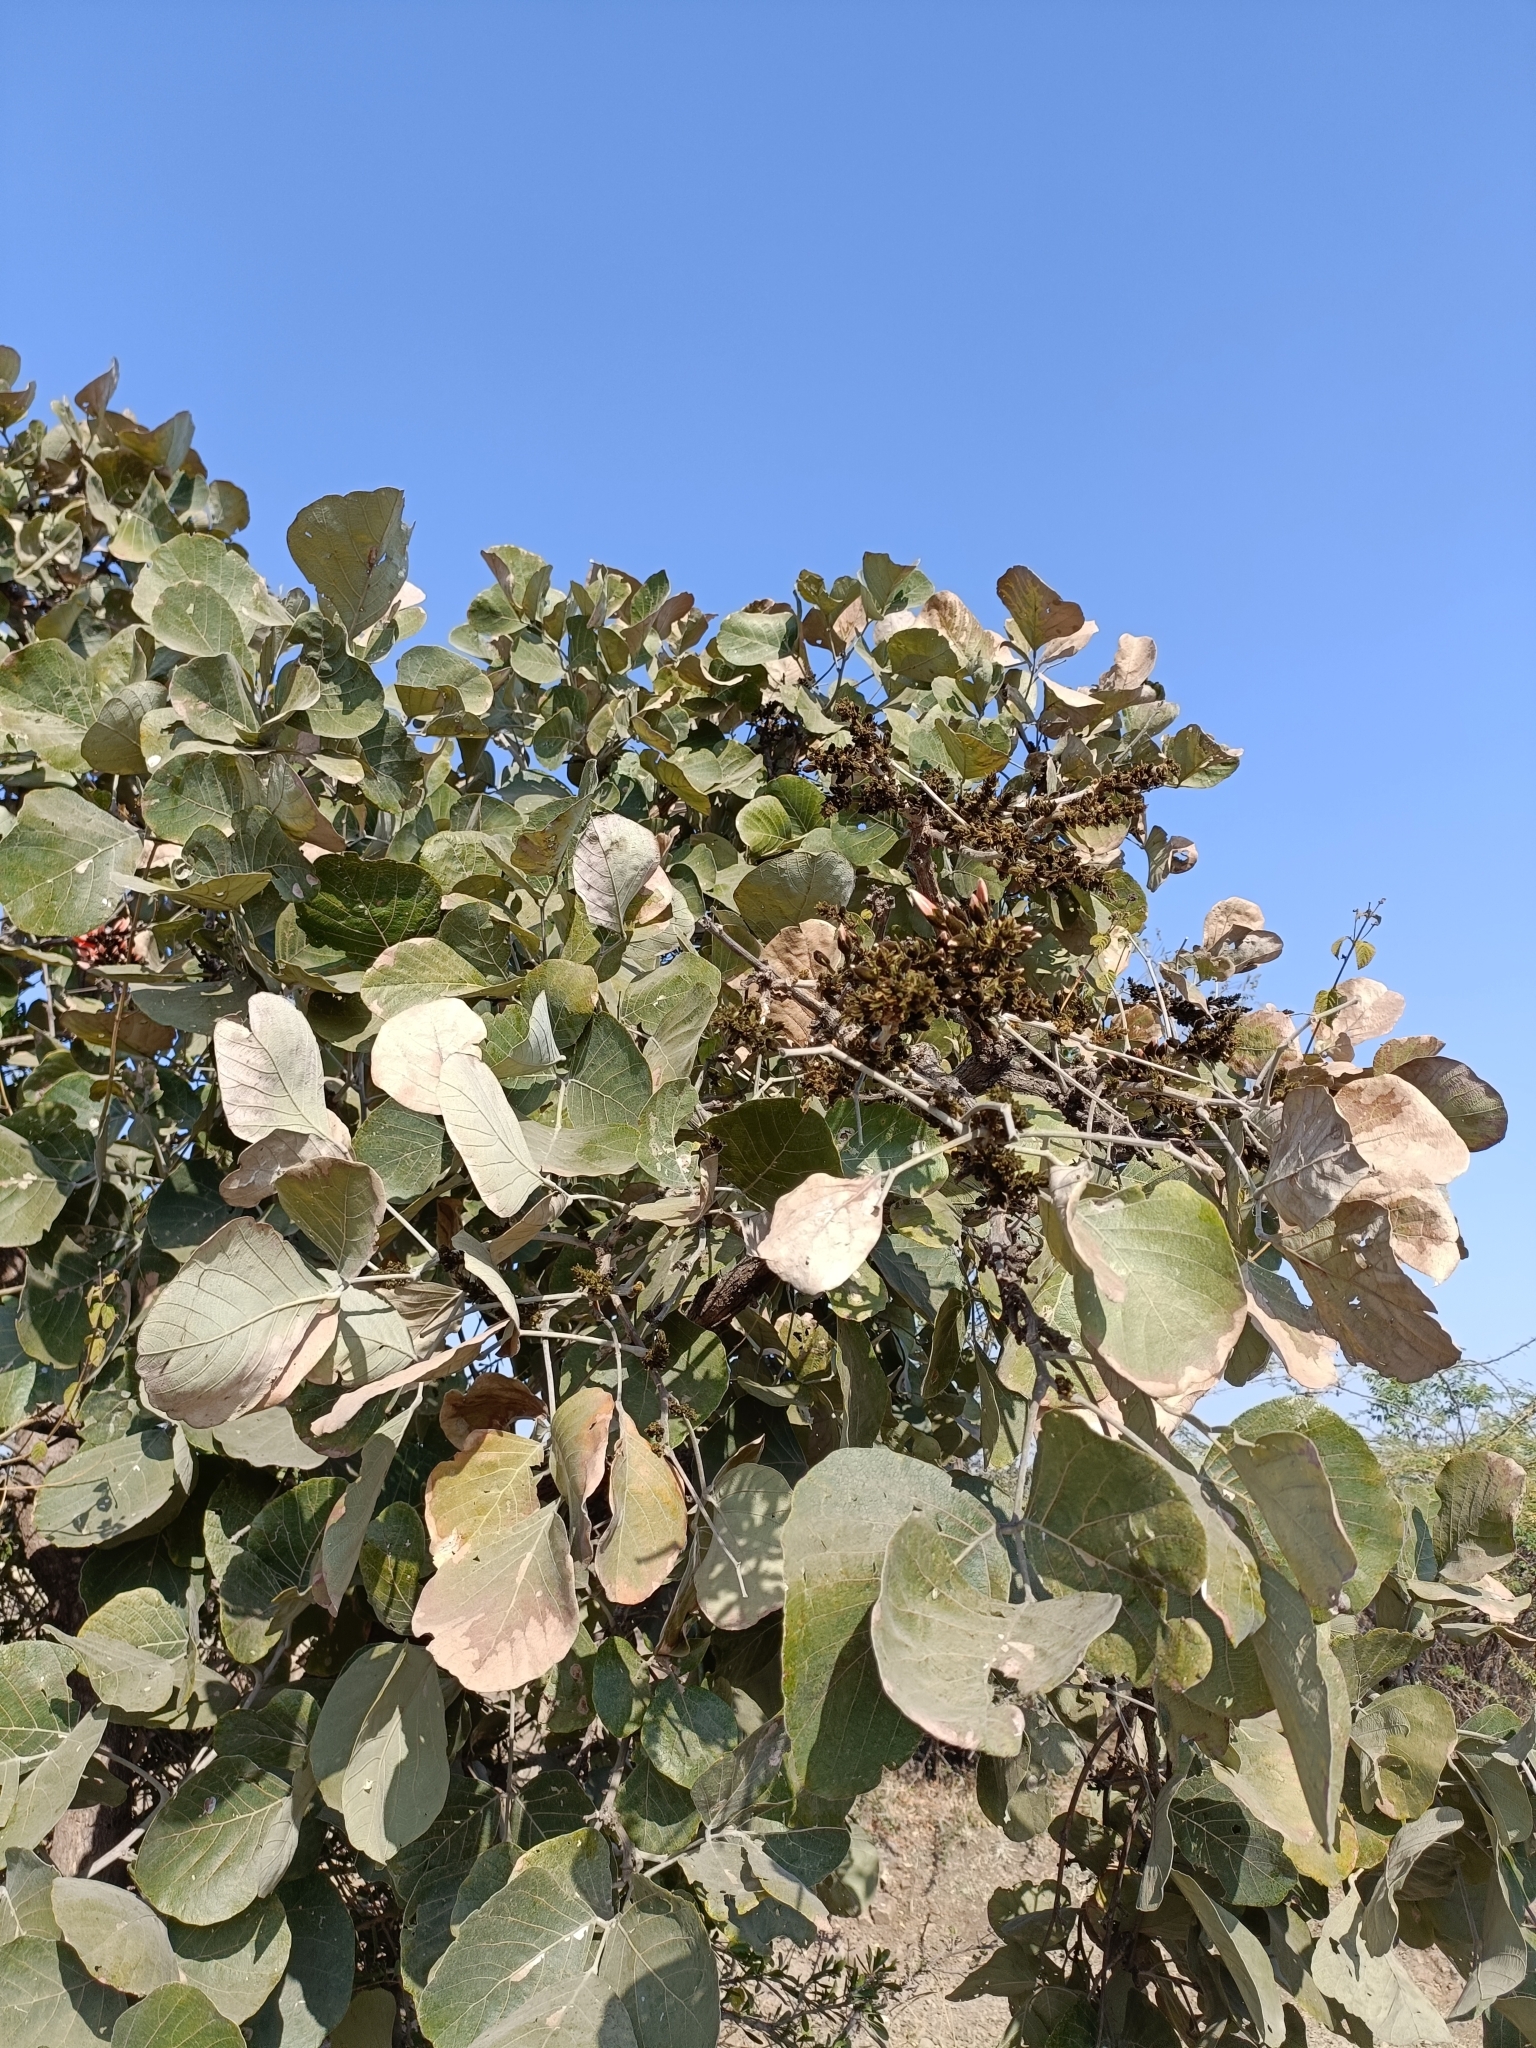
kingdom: Plantae
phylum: Tracheophyta
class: Magnoliopsida
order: Fabales
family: Fabaceae
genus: Butea
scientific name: Butea monosperma
